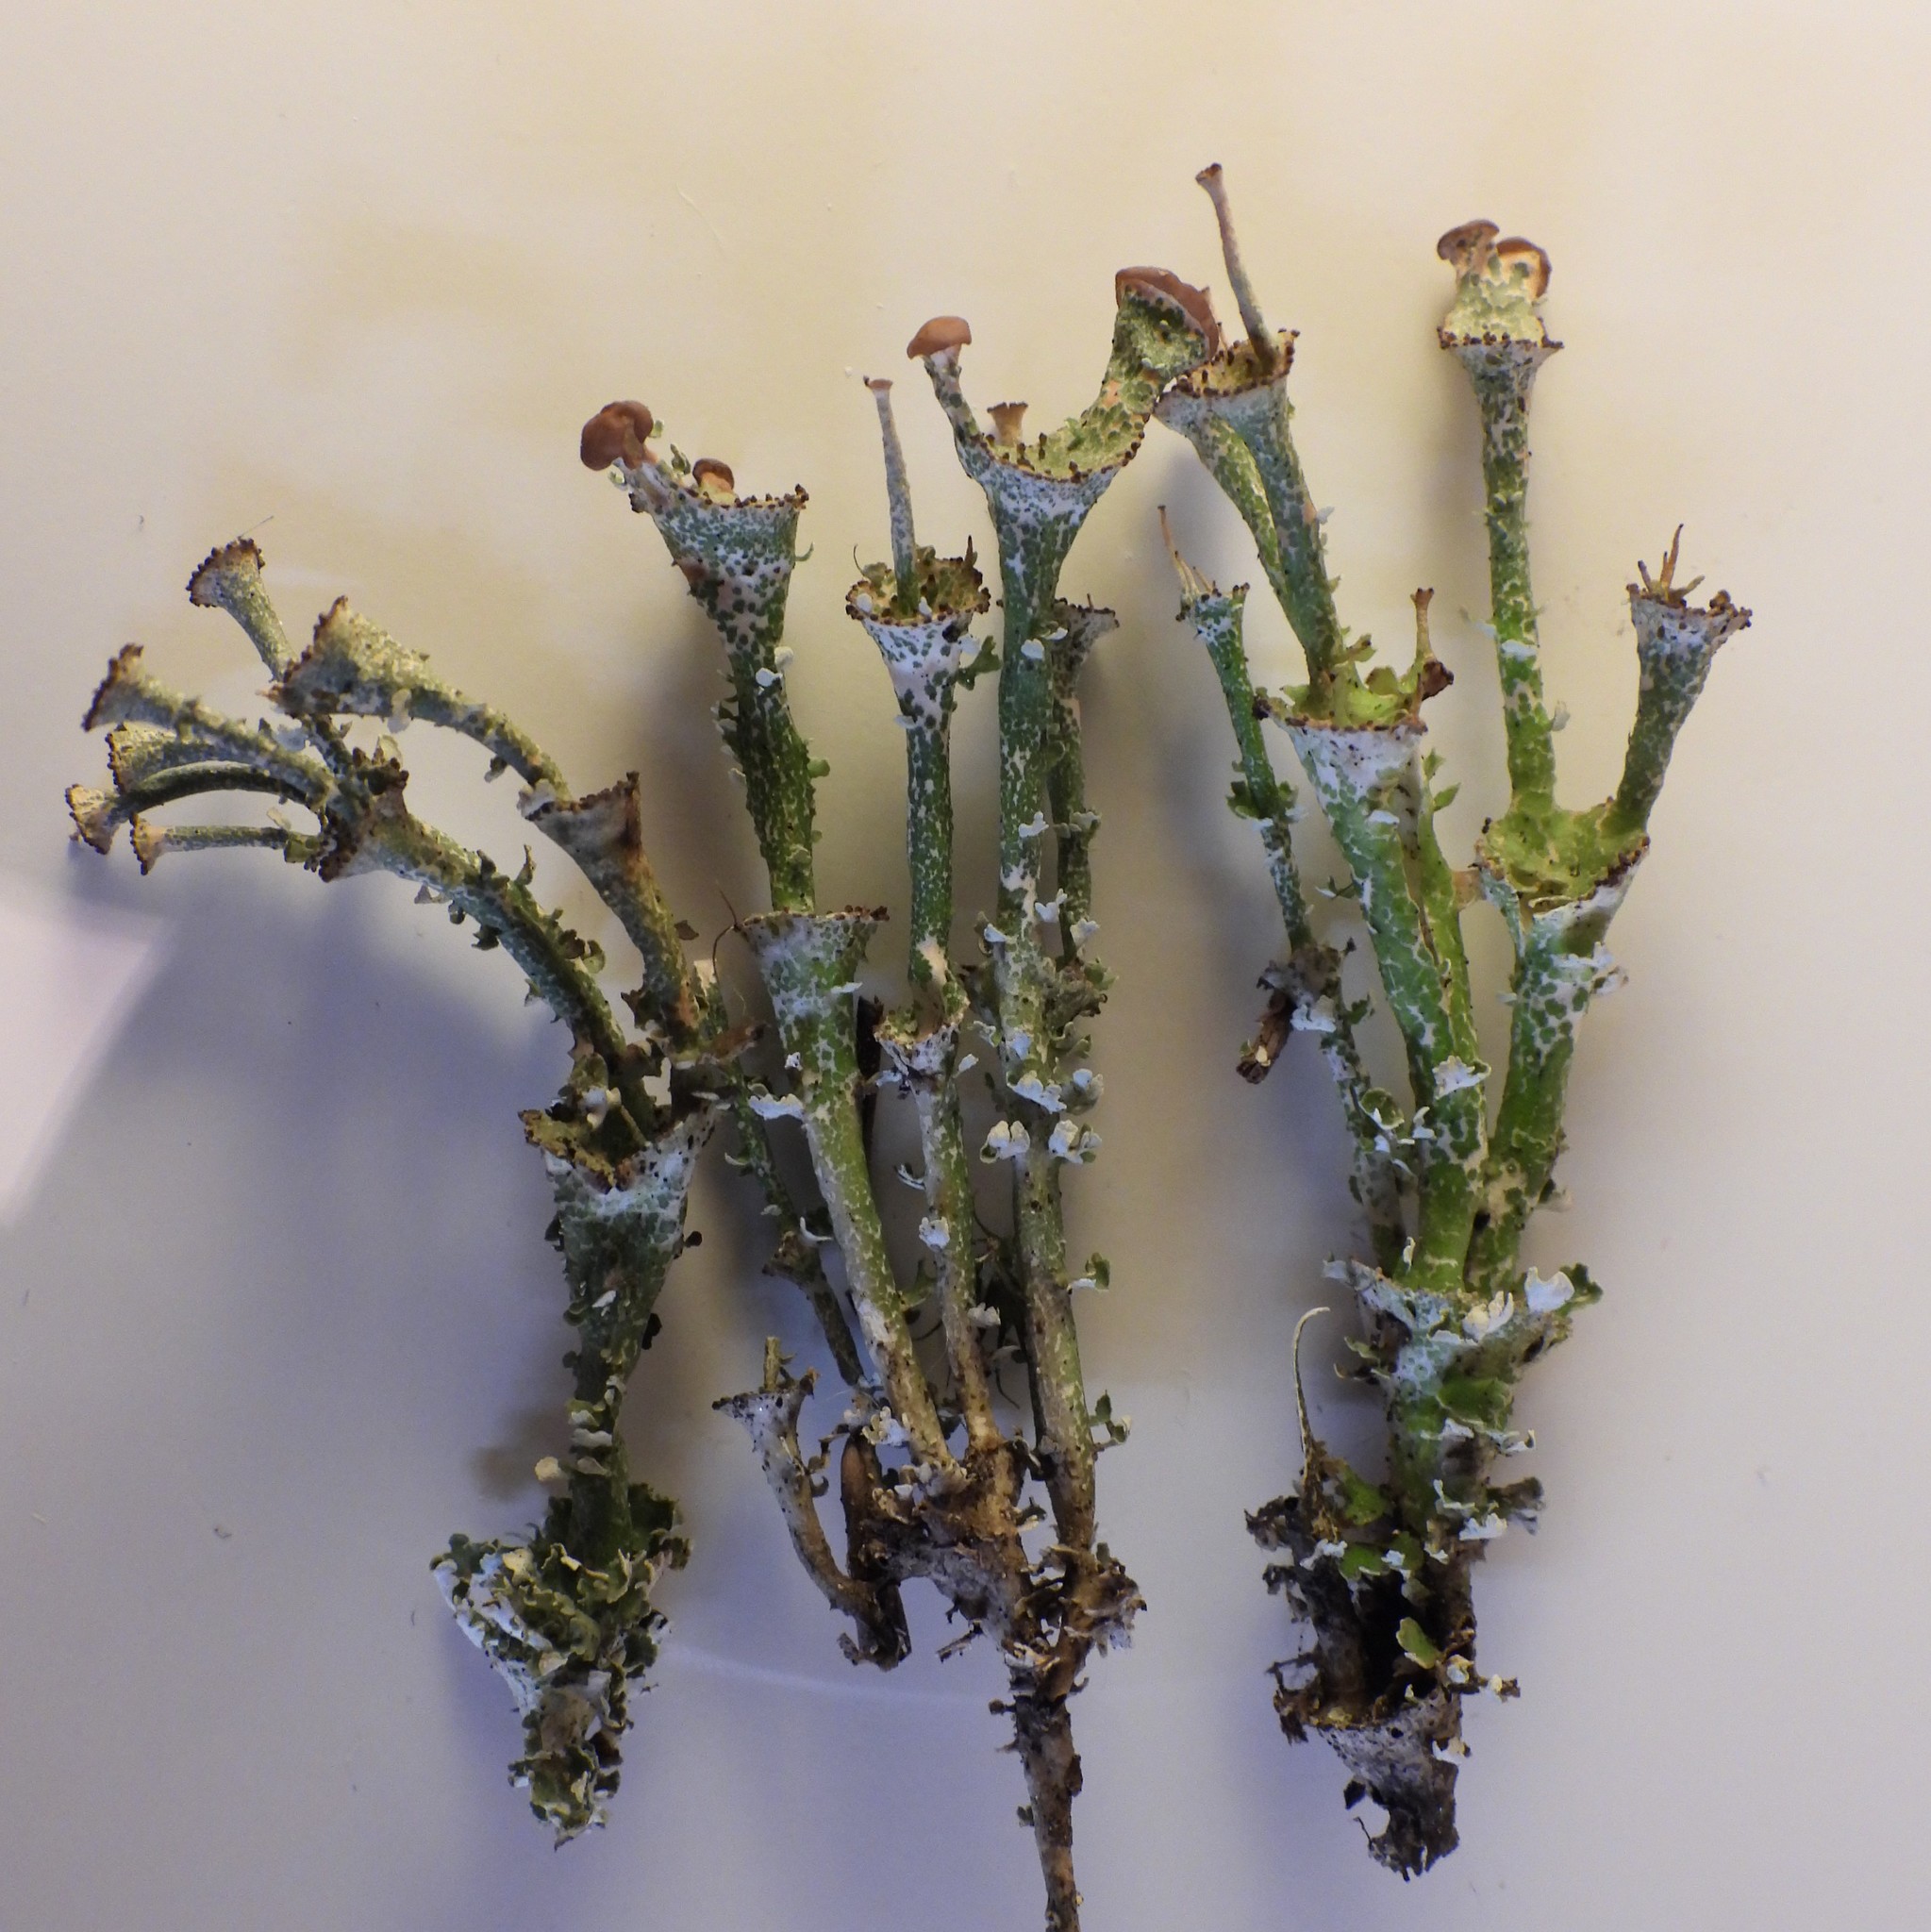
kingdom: Fungi
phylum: Ascomycota
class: Lecanoromycetes
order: Lecanorales
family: Cladoniaceae
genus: Cladonia
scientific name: Cladonia gracilis
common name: Smooth clad lichen
